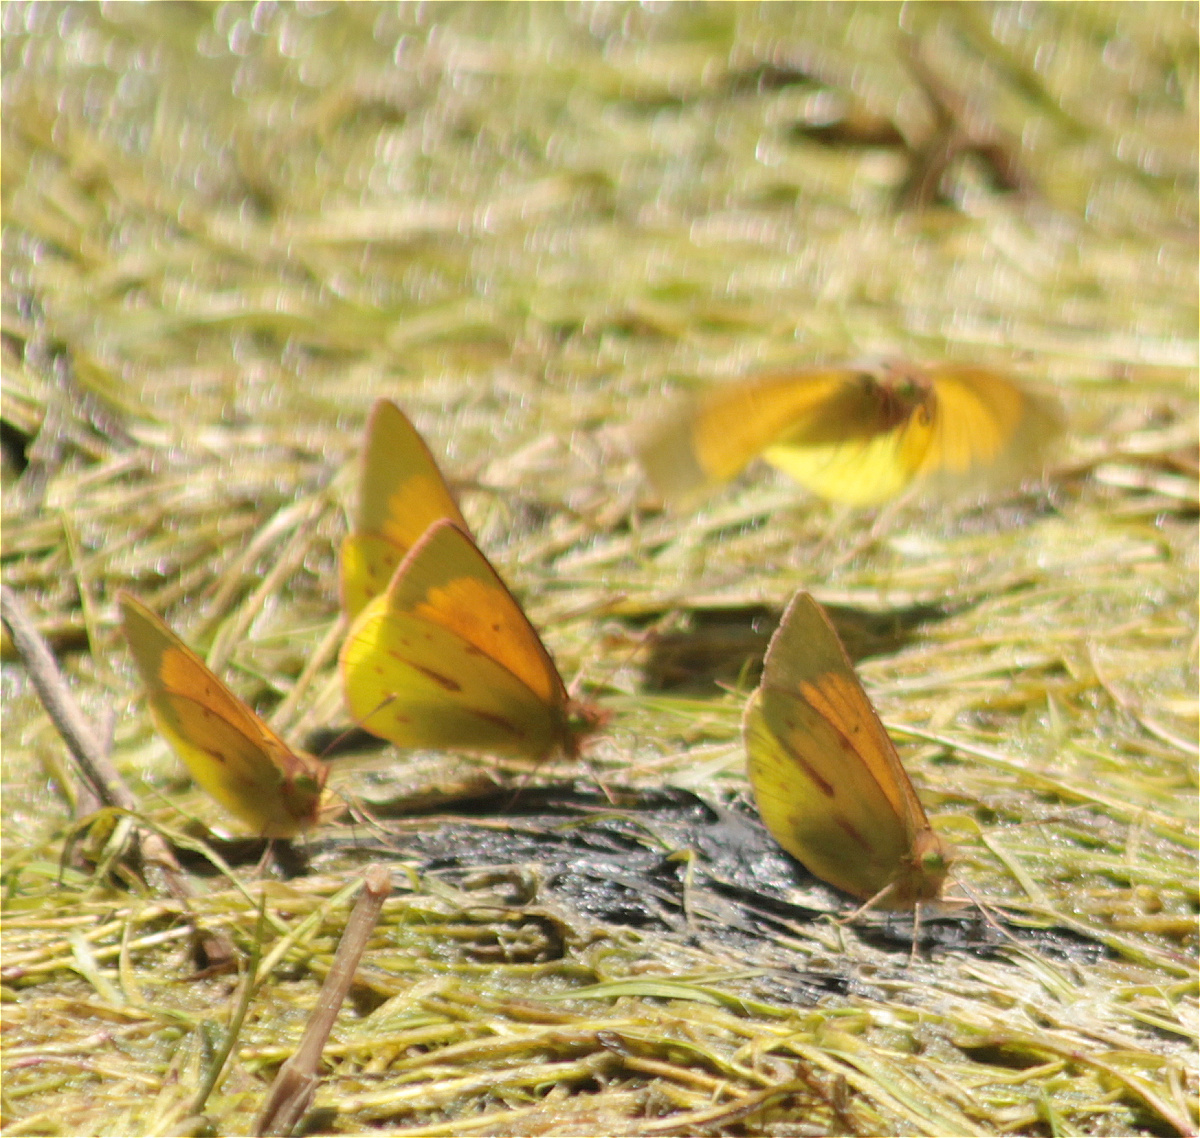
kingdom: Animalia
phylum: Arthropoda
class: Insecta
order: Lepidoptera
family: Pieridae
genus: Colias
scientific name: Colias dimera
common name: Dimera sulphur
